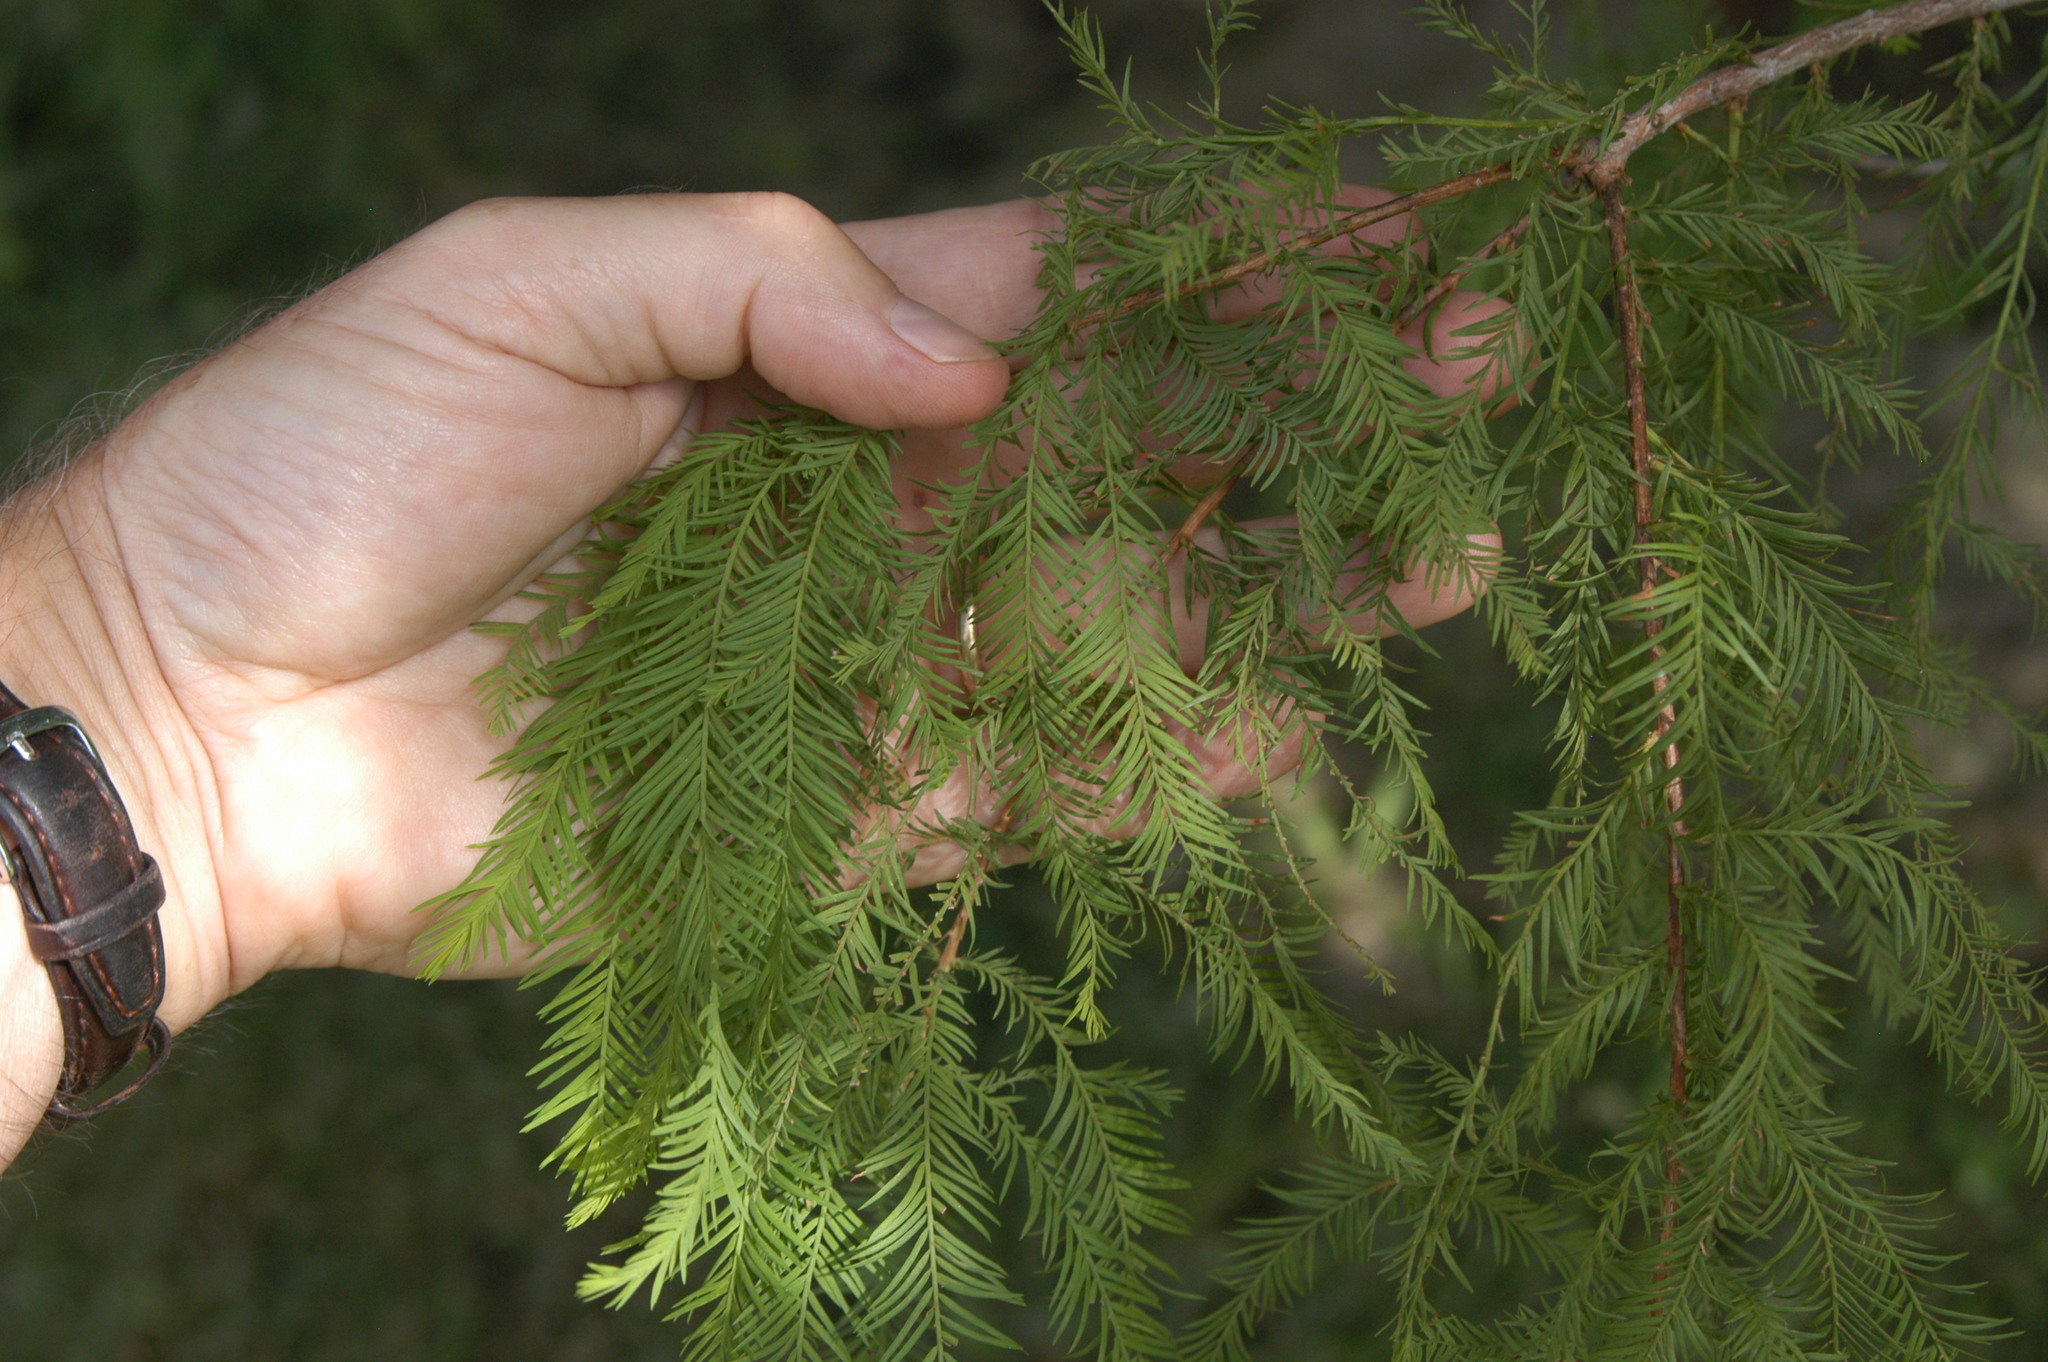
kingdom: Plantae
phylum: Tracheophyta
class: Pinopsida
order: Pinales
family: Cupressaceae
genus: Taxodium
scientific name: Taxodium distichum
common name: Bald cypress
